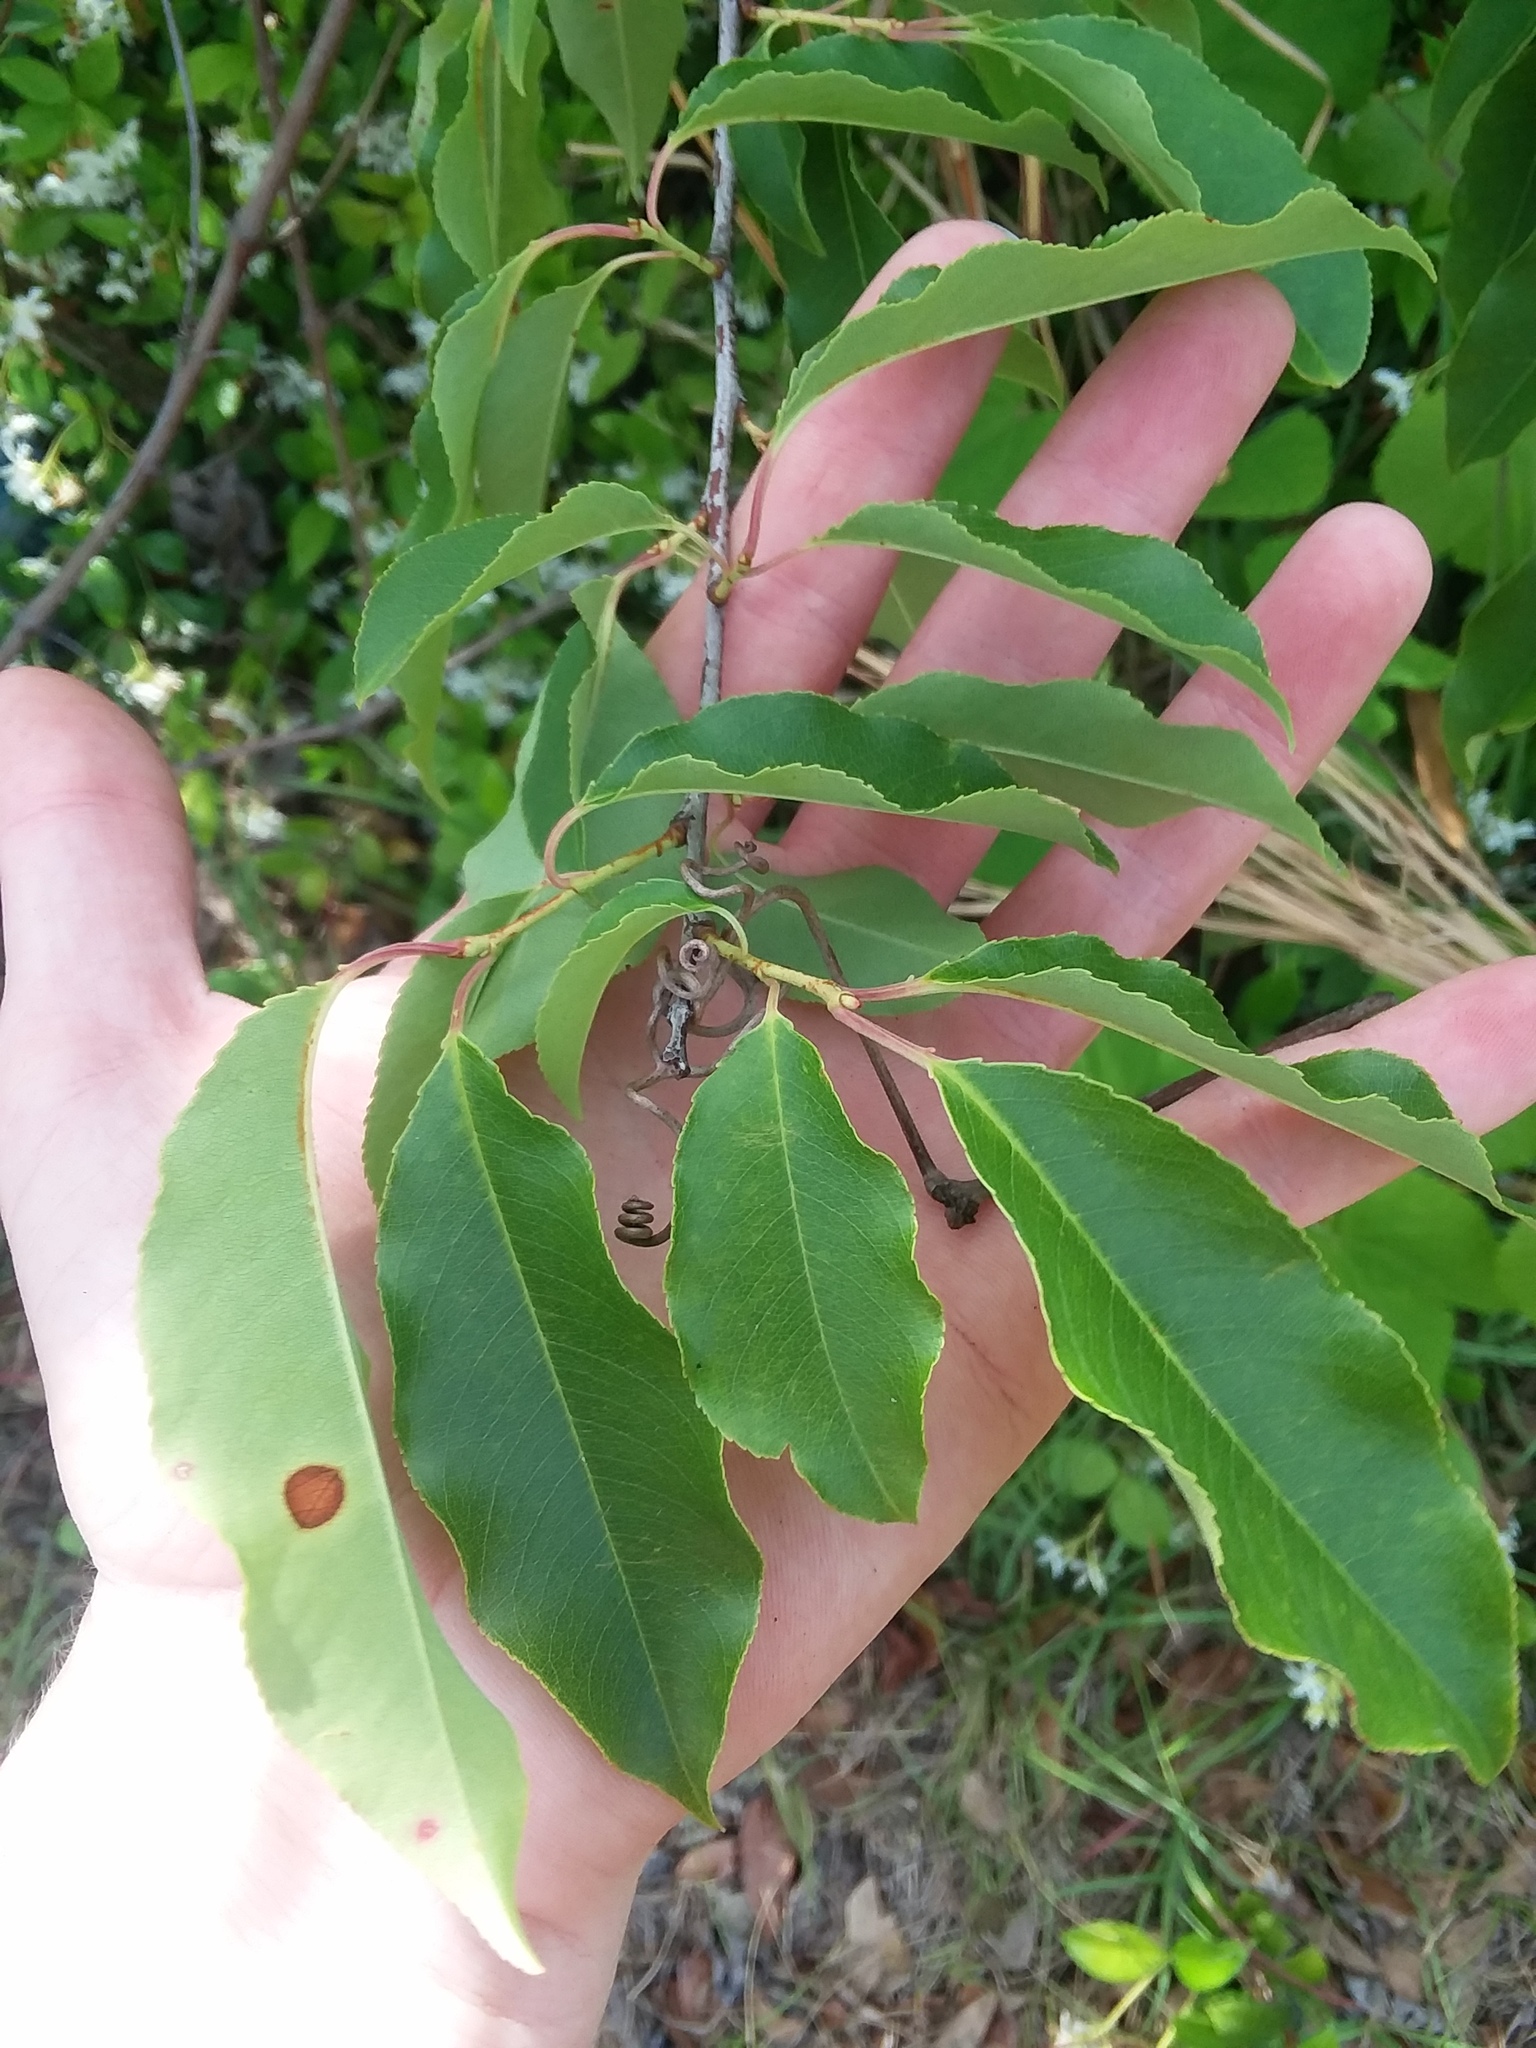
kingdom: Plantae
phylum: Tracheophyta
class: Magnoliopsida
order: Rosales
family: Rosaceae
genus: Prunus
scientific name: Prunus serotina
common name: Black cherry
